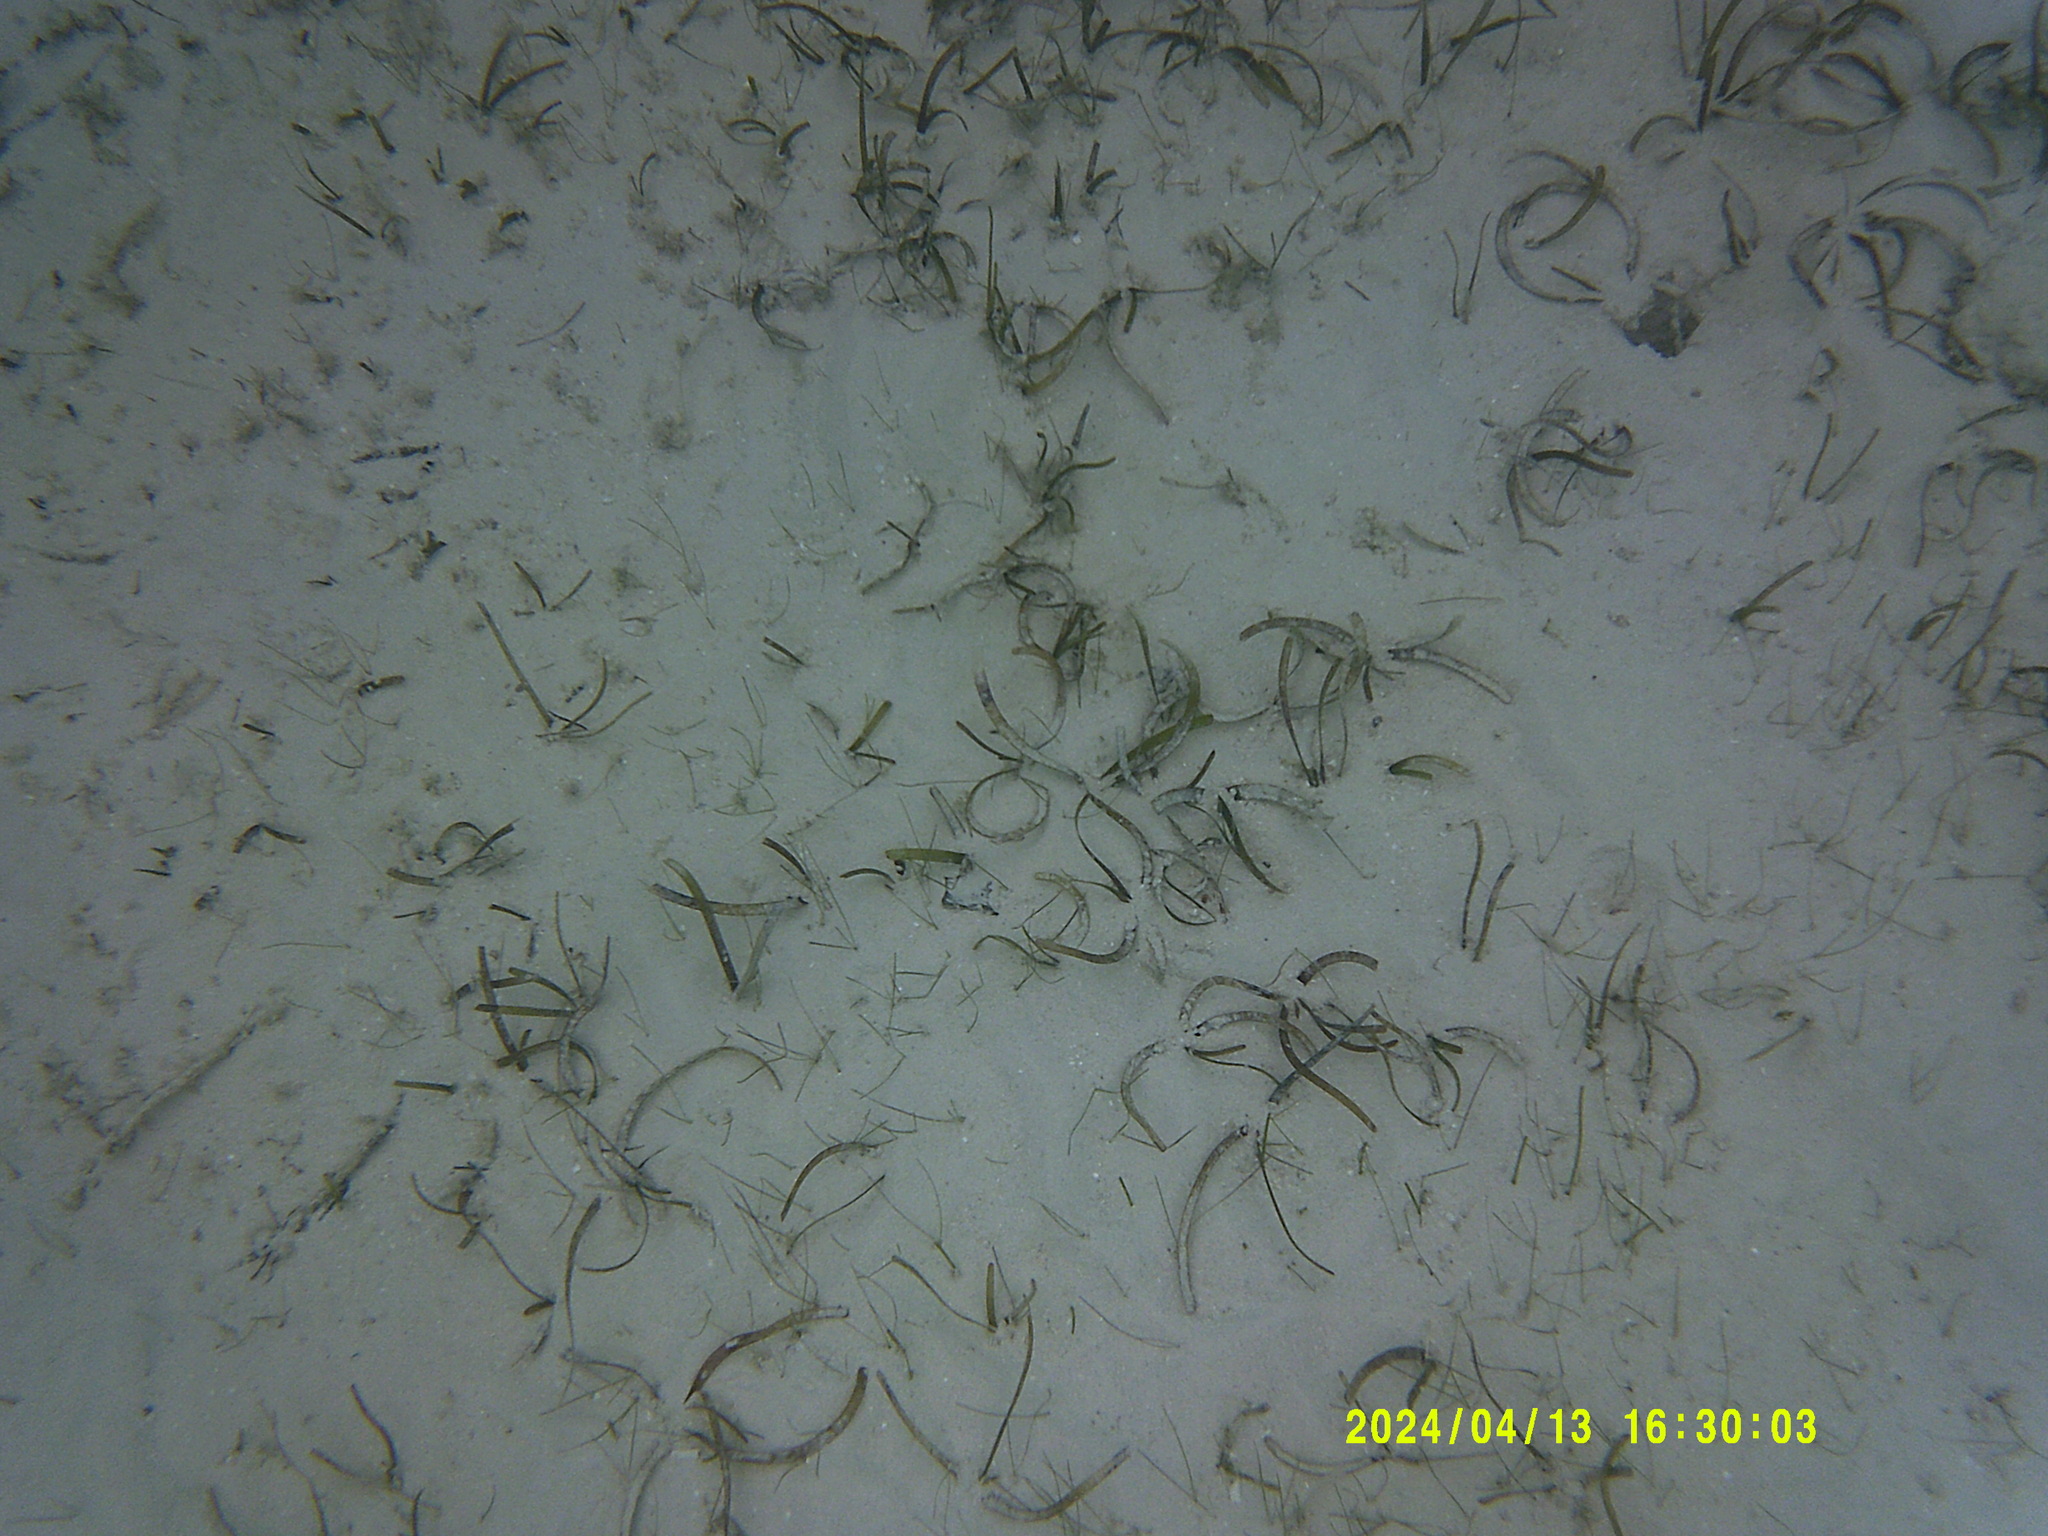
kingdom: Plantae
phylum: Tracheophyta
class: Liliopsida
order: Alismatales
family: Hydrocharitaceae
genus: Thalassia
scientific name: Thalassia testudinum
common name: Species code: tt
